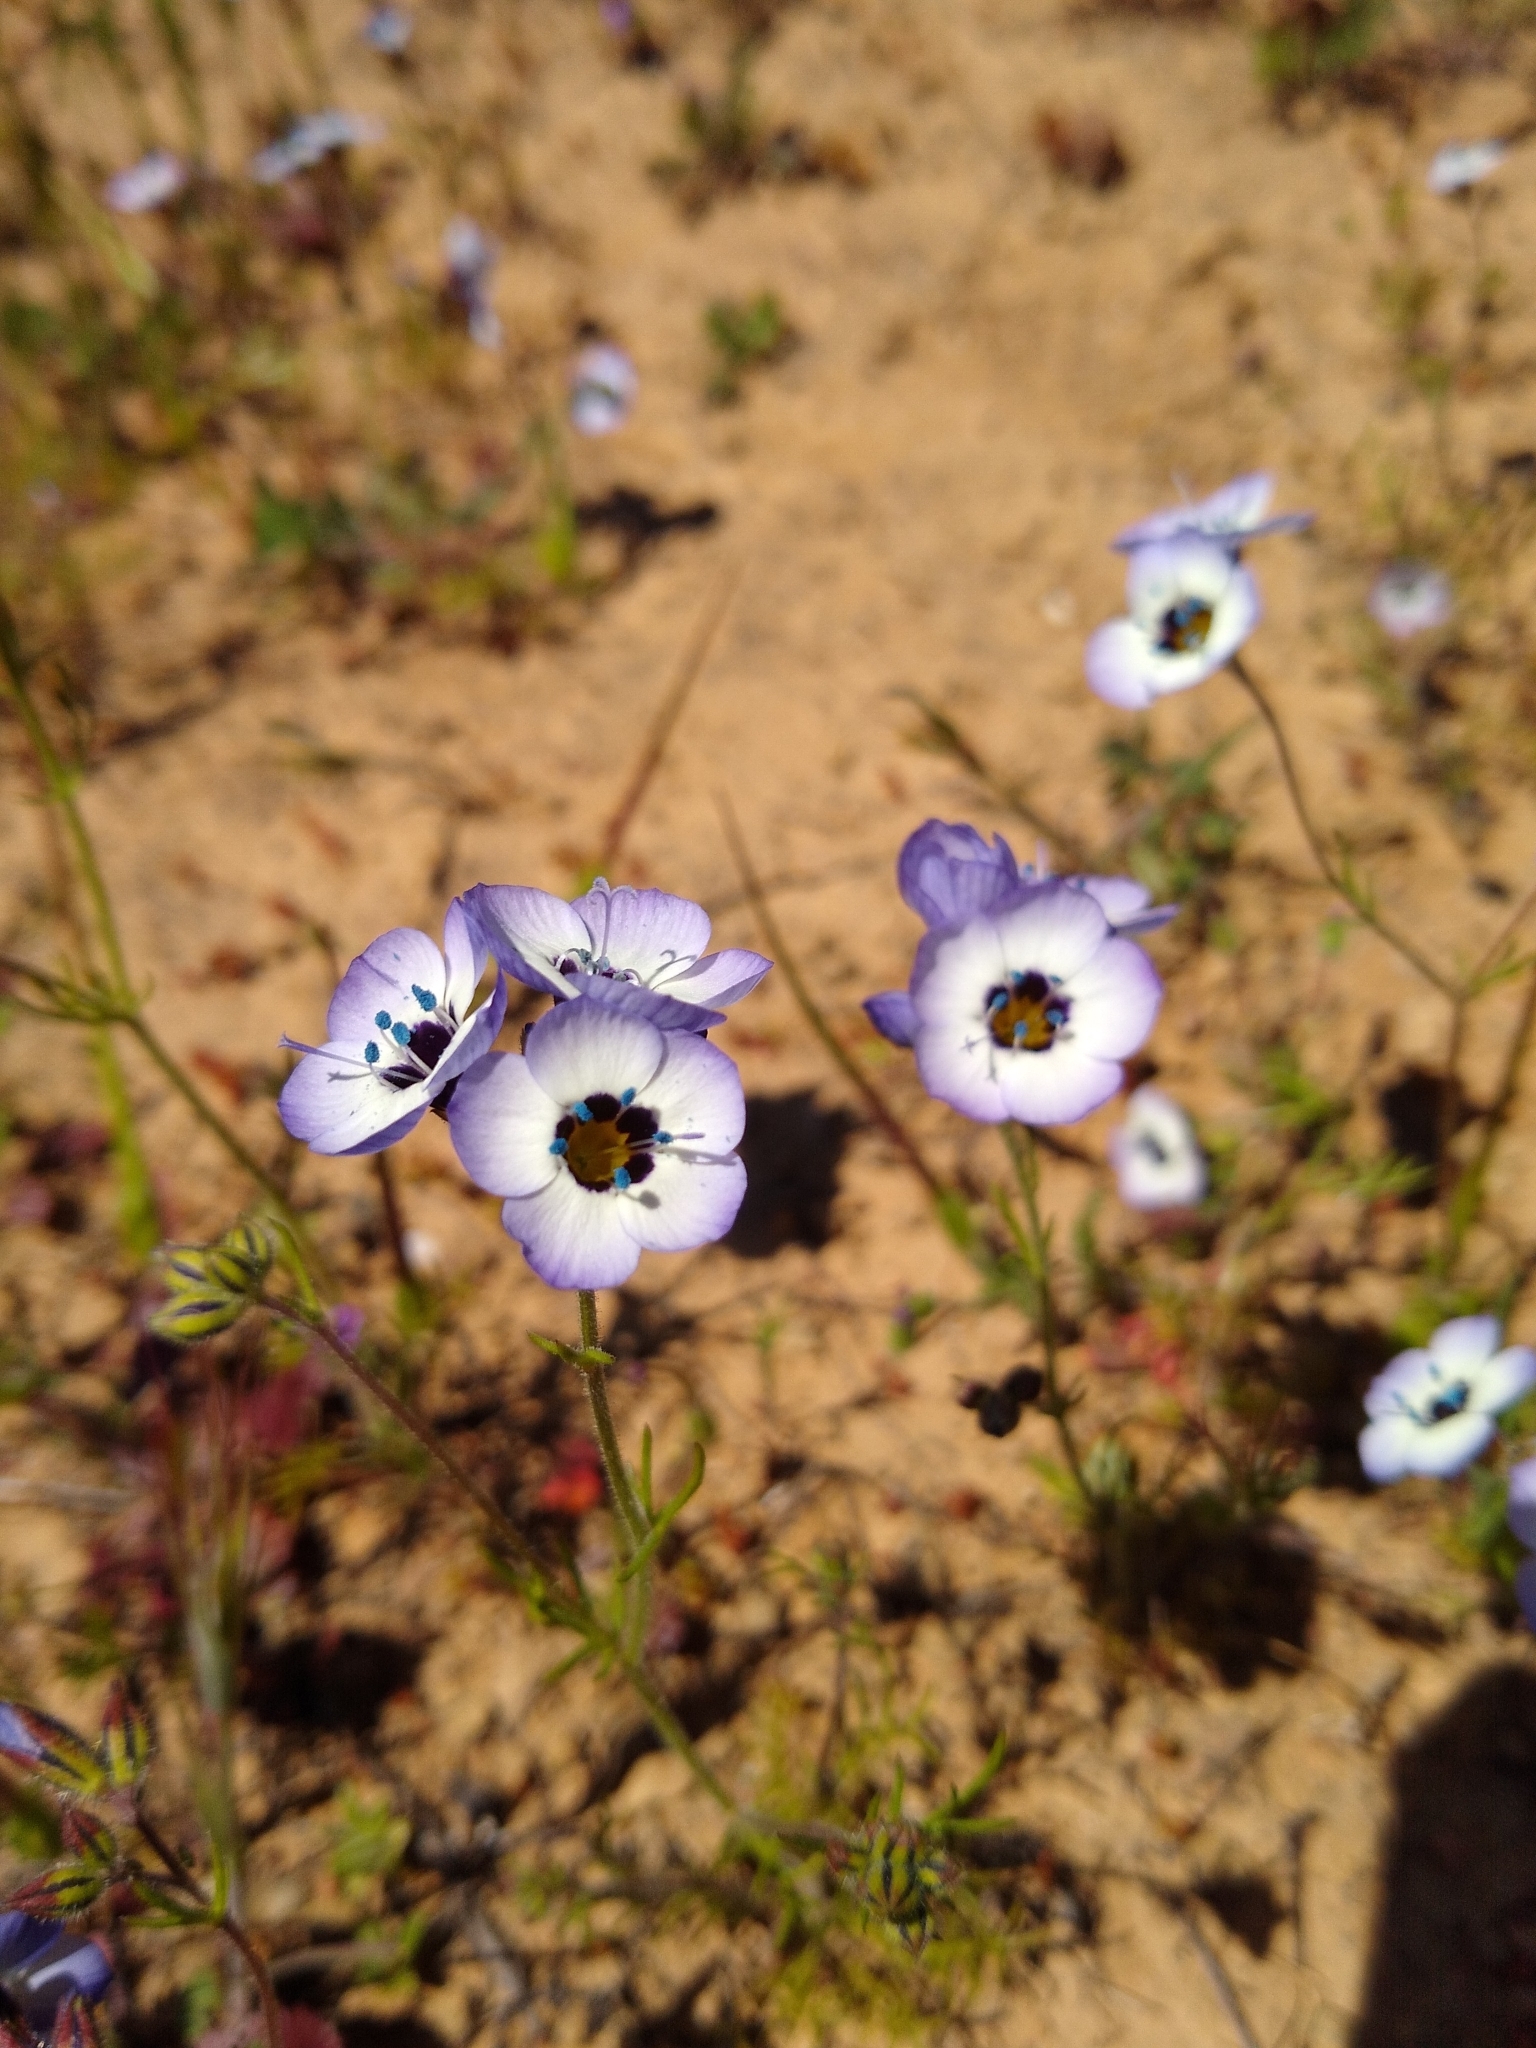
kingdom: Plantae
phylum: Tracheophyta
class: Magnoliopsida
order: Ericales
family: Polemoniaceae
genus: Gilia
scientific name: Gilia tricolor
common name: Bird's-eyes
